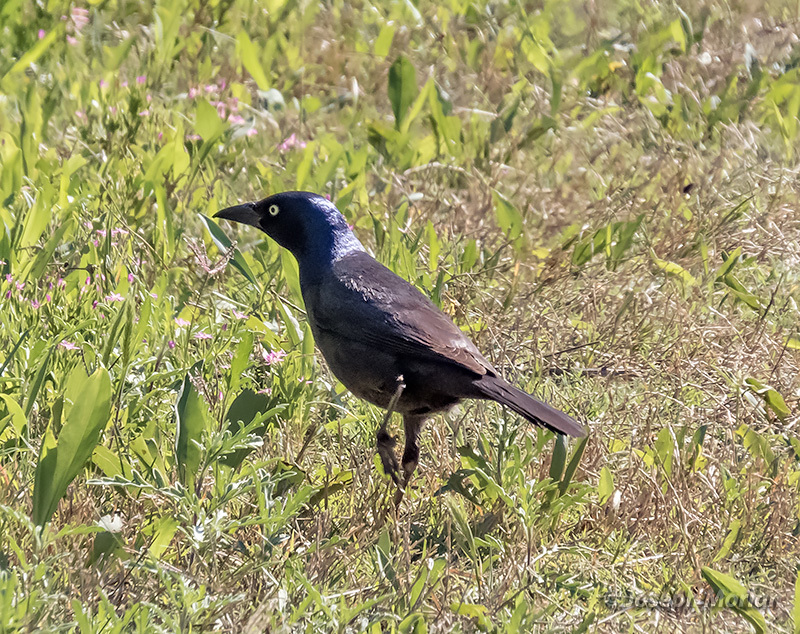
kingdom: Animalia
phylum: Chordata
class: Aves
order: Passeriformes
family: Icteridae
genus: Quiscalus
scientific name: Quiscalus quiscula
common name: Common grackle
